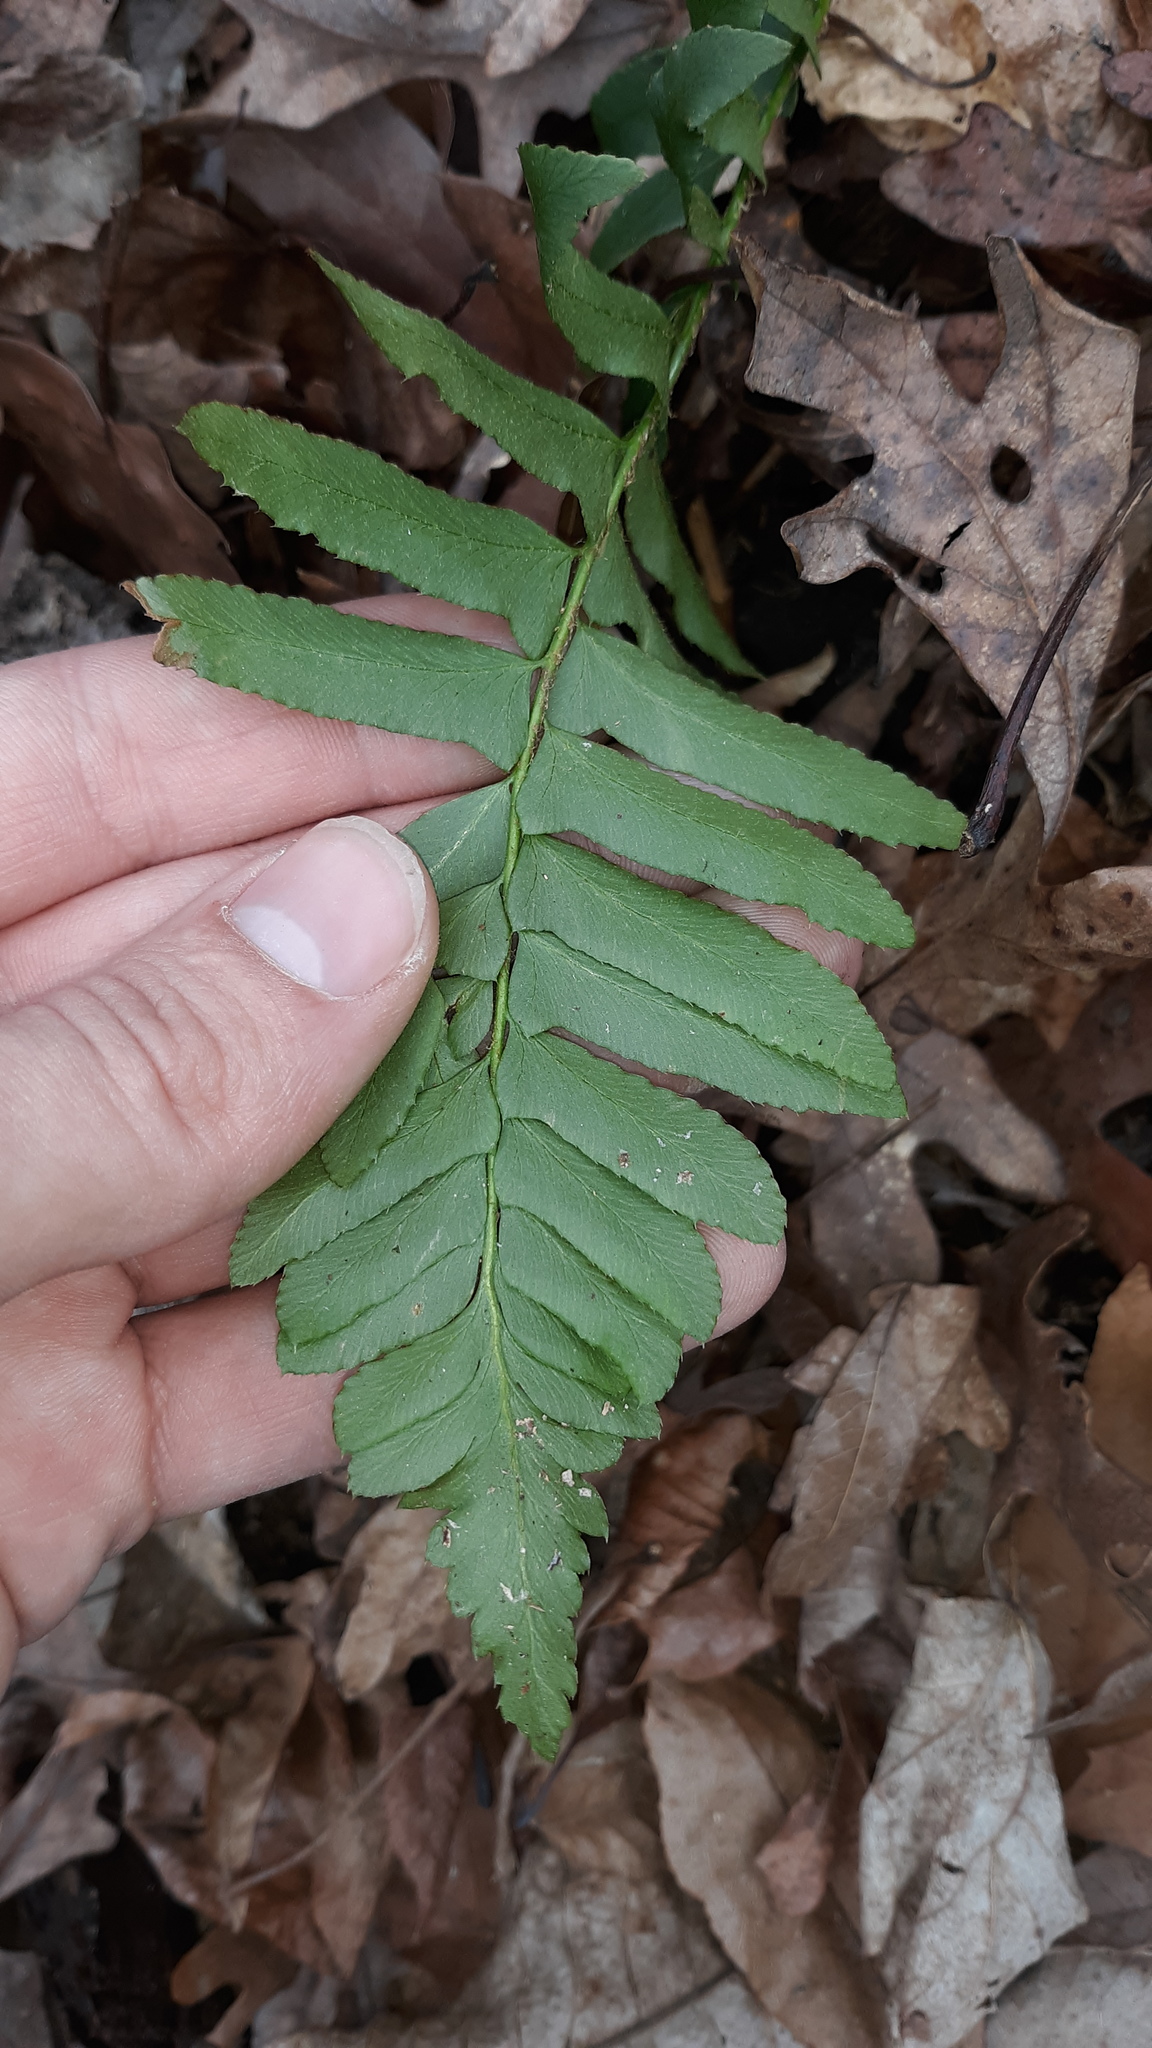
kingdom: Plantae
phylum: Tracheophyta
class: Polypodiopsida
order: Polypodiales
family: Dryopteridaceae
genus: Polystichum
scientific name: Polystichum acrostichoides
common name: Christmas fern
